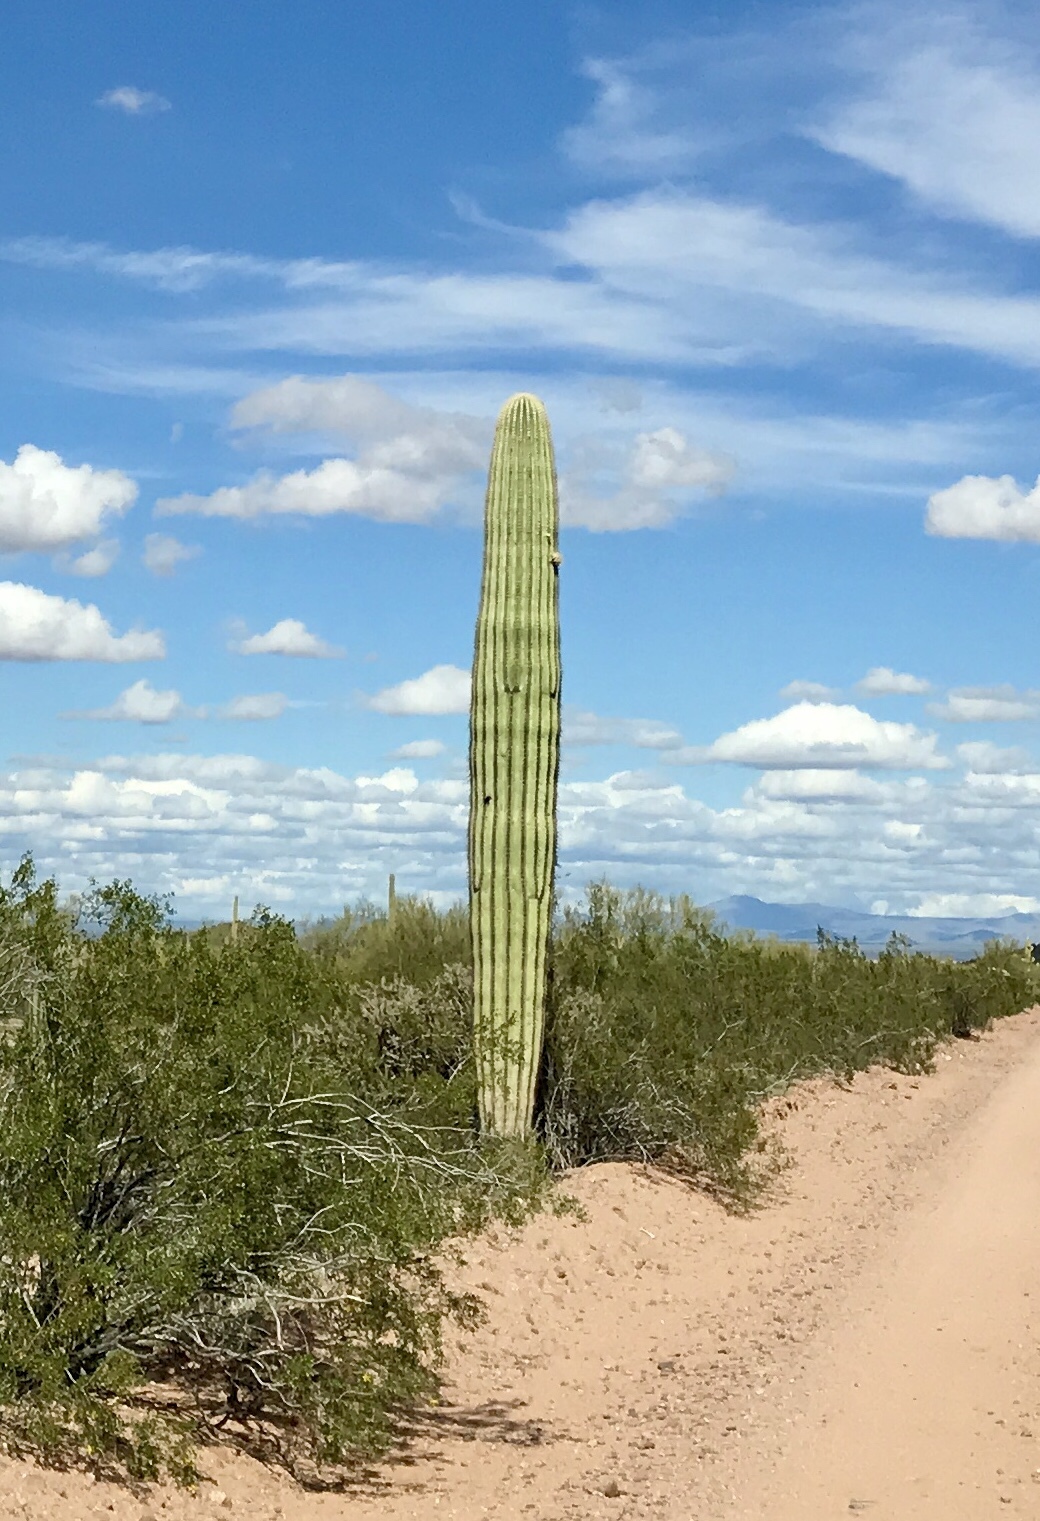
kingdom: Plantae
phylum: Tracheophyta
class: Magnoliopsida
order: Caryophyllales
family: Cactaceae
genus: Carnegiea
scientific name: Carnegiea gigantea
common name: Saguaro
